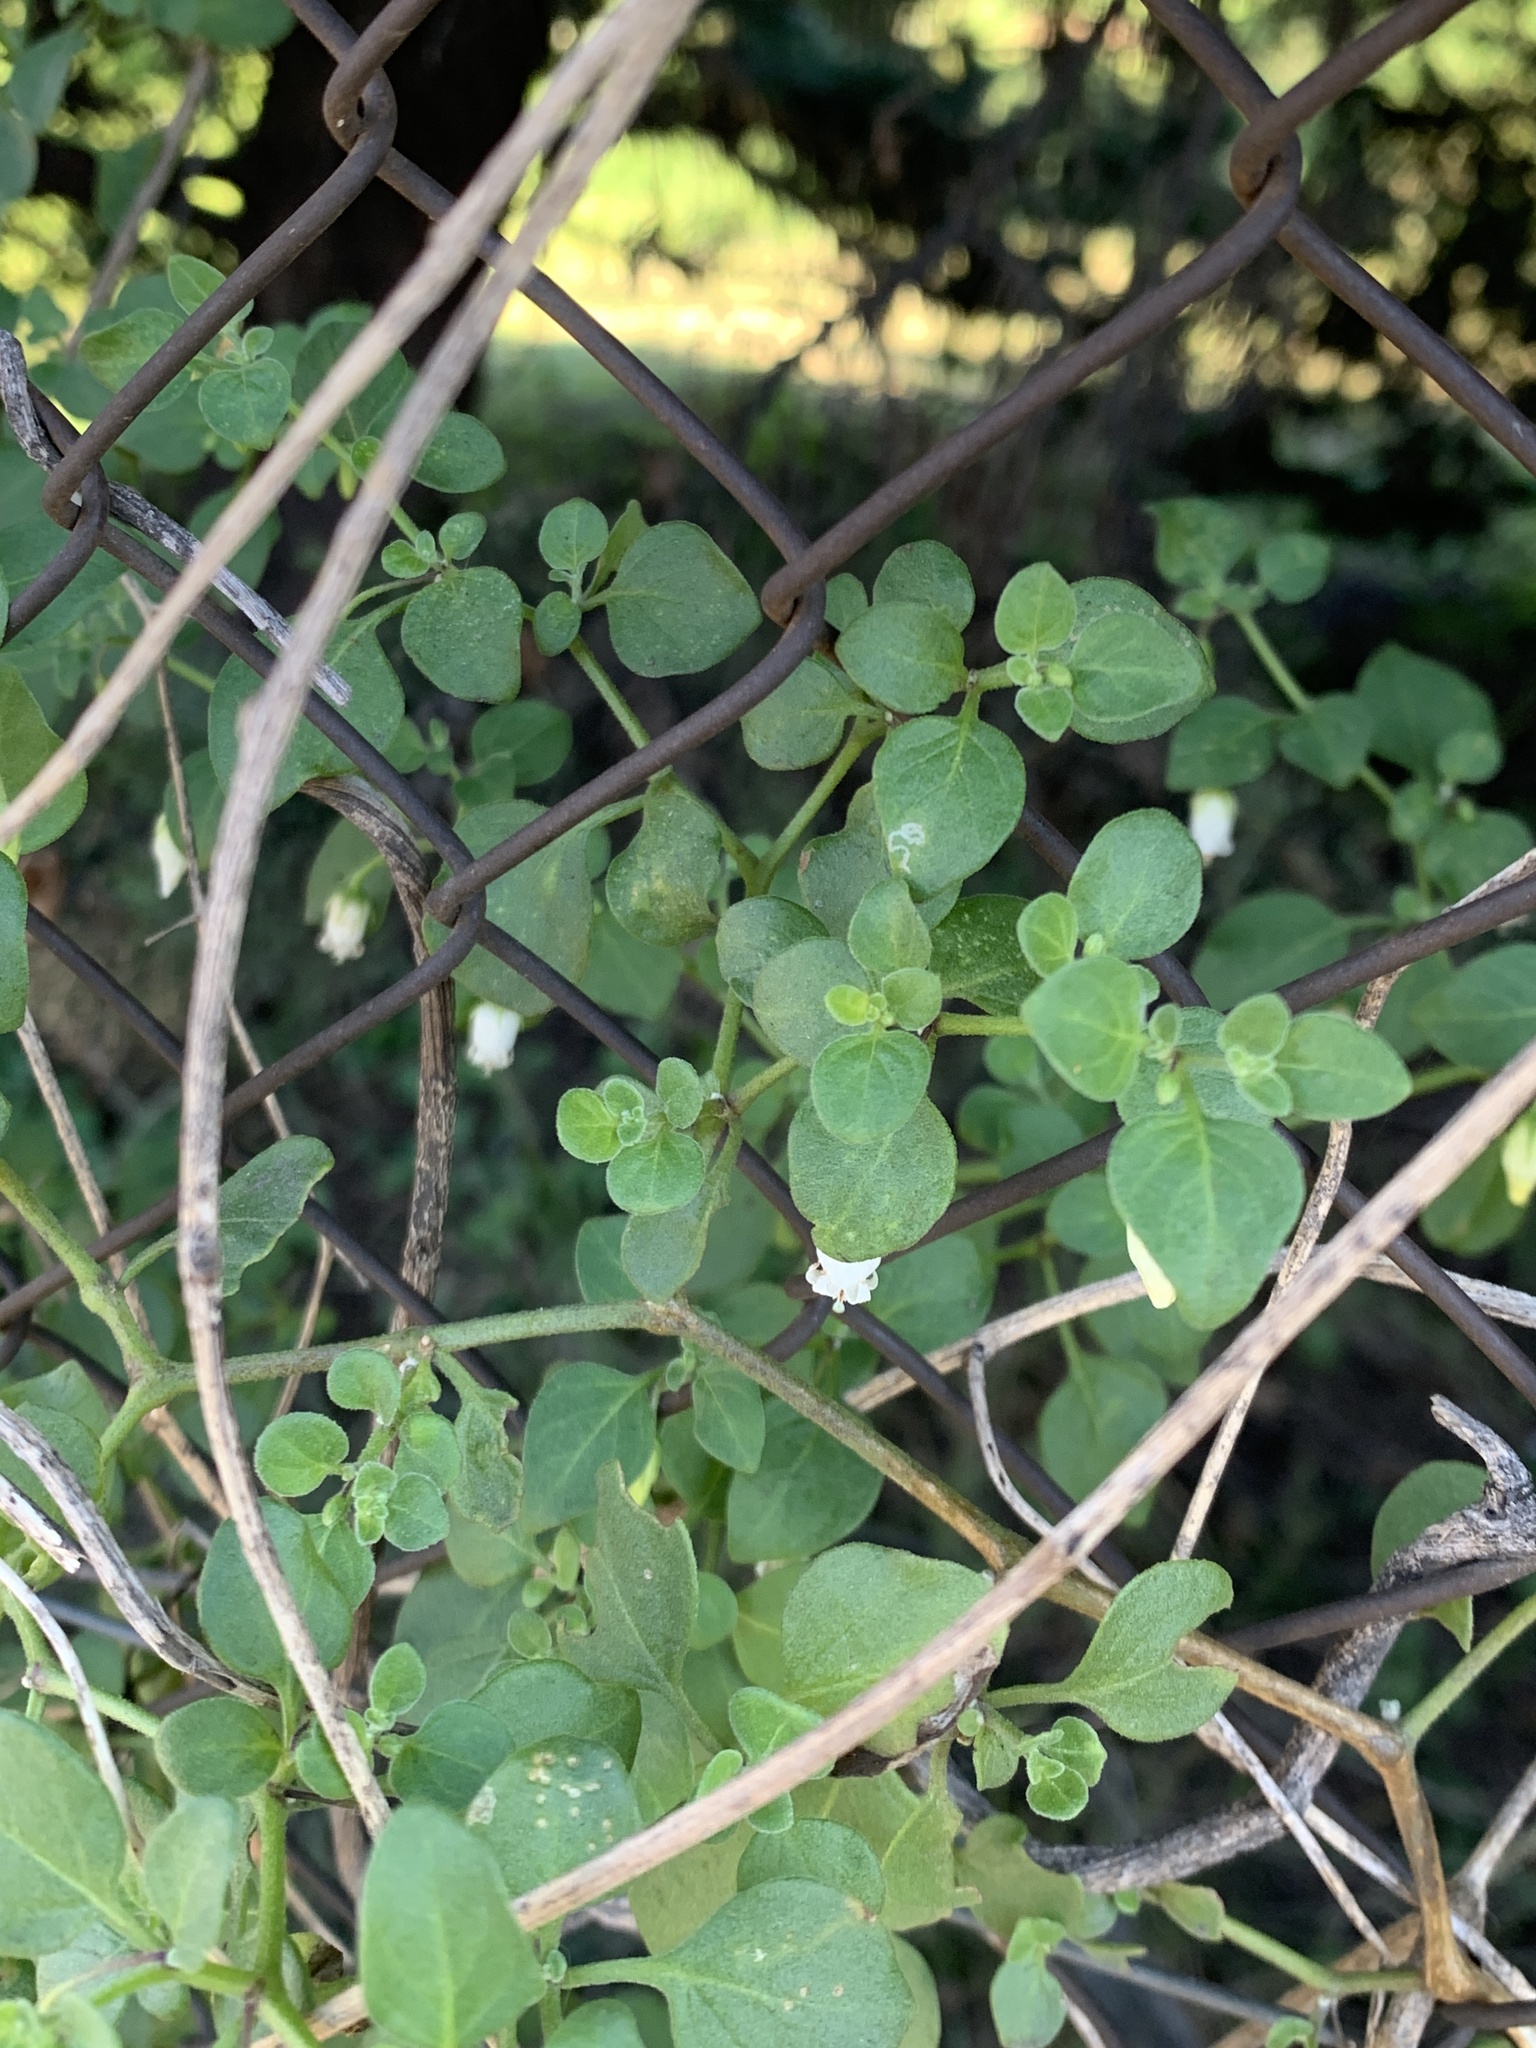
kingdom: Plantae
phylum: Tracheophyta
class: Magnoliopsida
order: Solanales
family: Solanaceae
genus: Salpichroa
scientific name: Salpichroa origanifolia
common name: Lily-of-the-valley-vine
